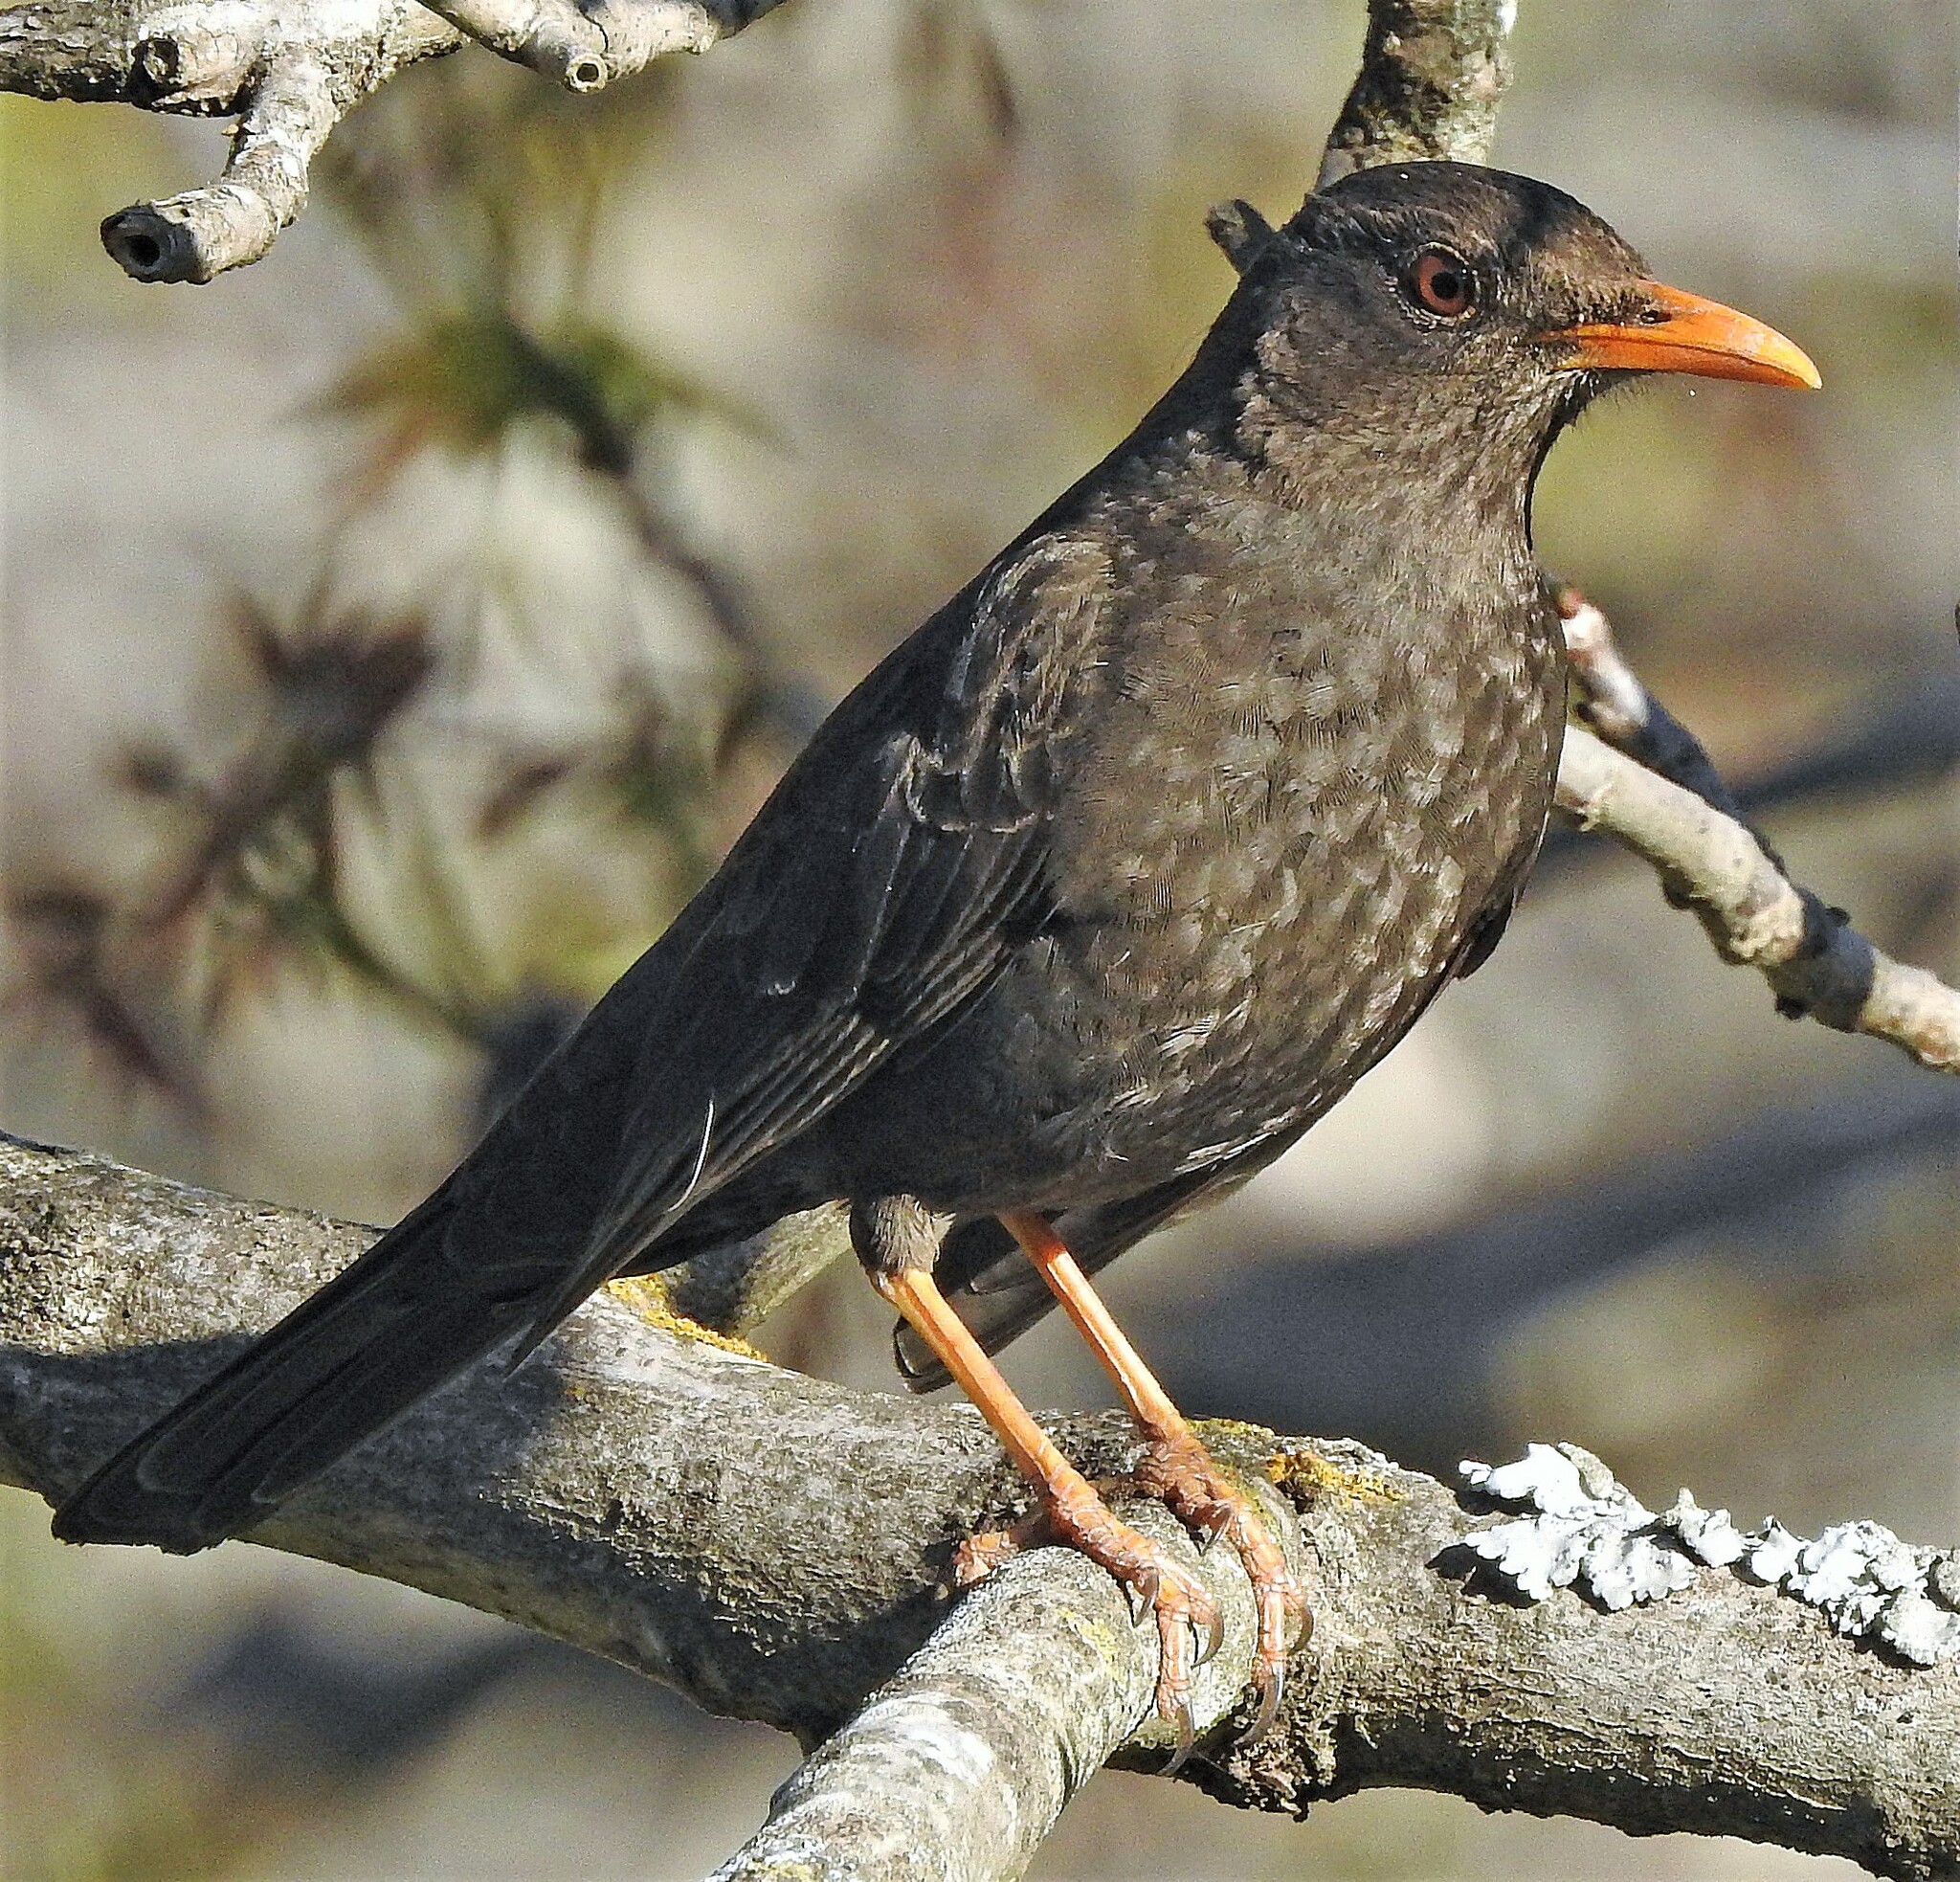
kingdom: Animalia
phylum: Chordata
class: Aves
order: Passeriformes
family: Turdidae
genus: Turdus
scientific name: Turdus chiguanco
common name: Chiguanco thrush
